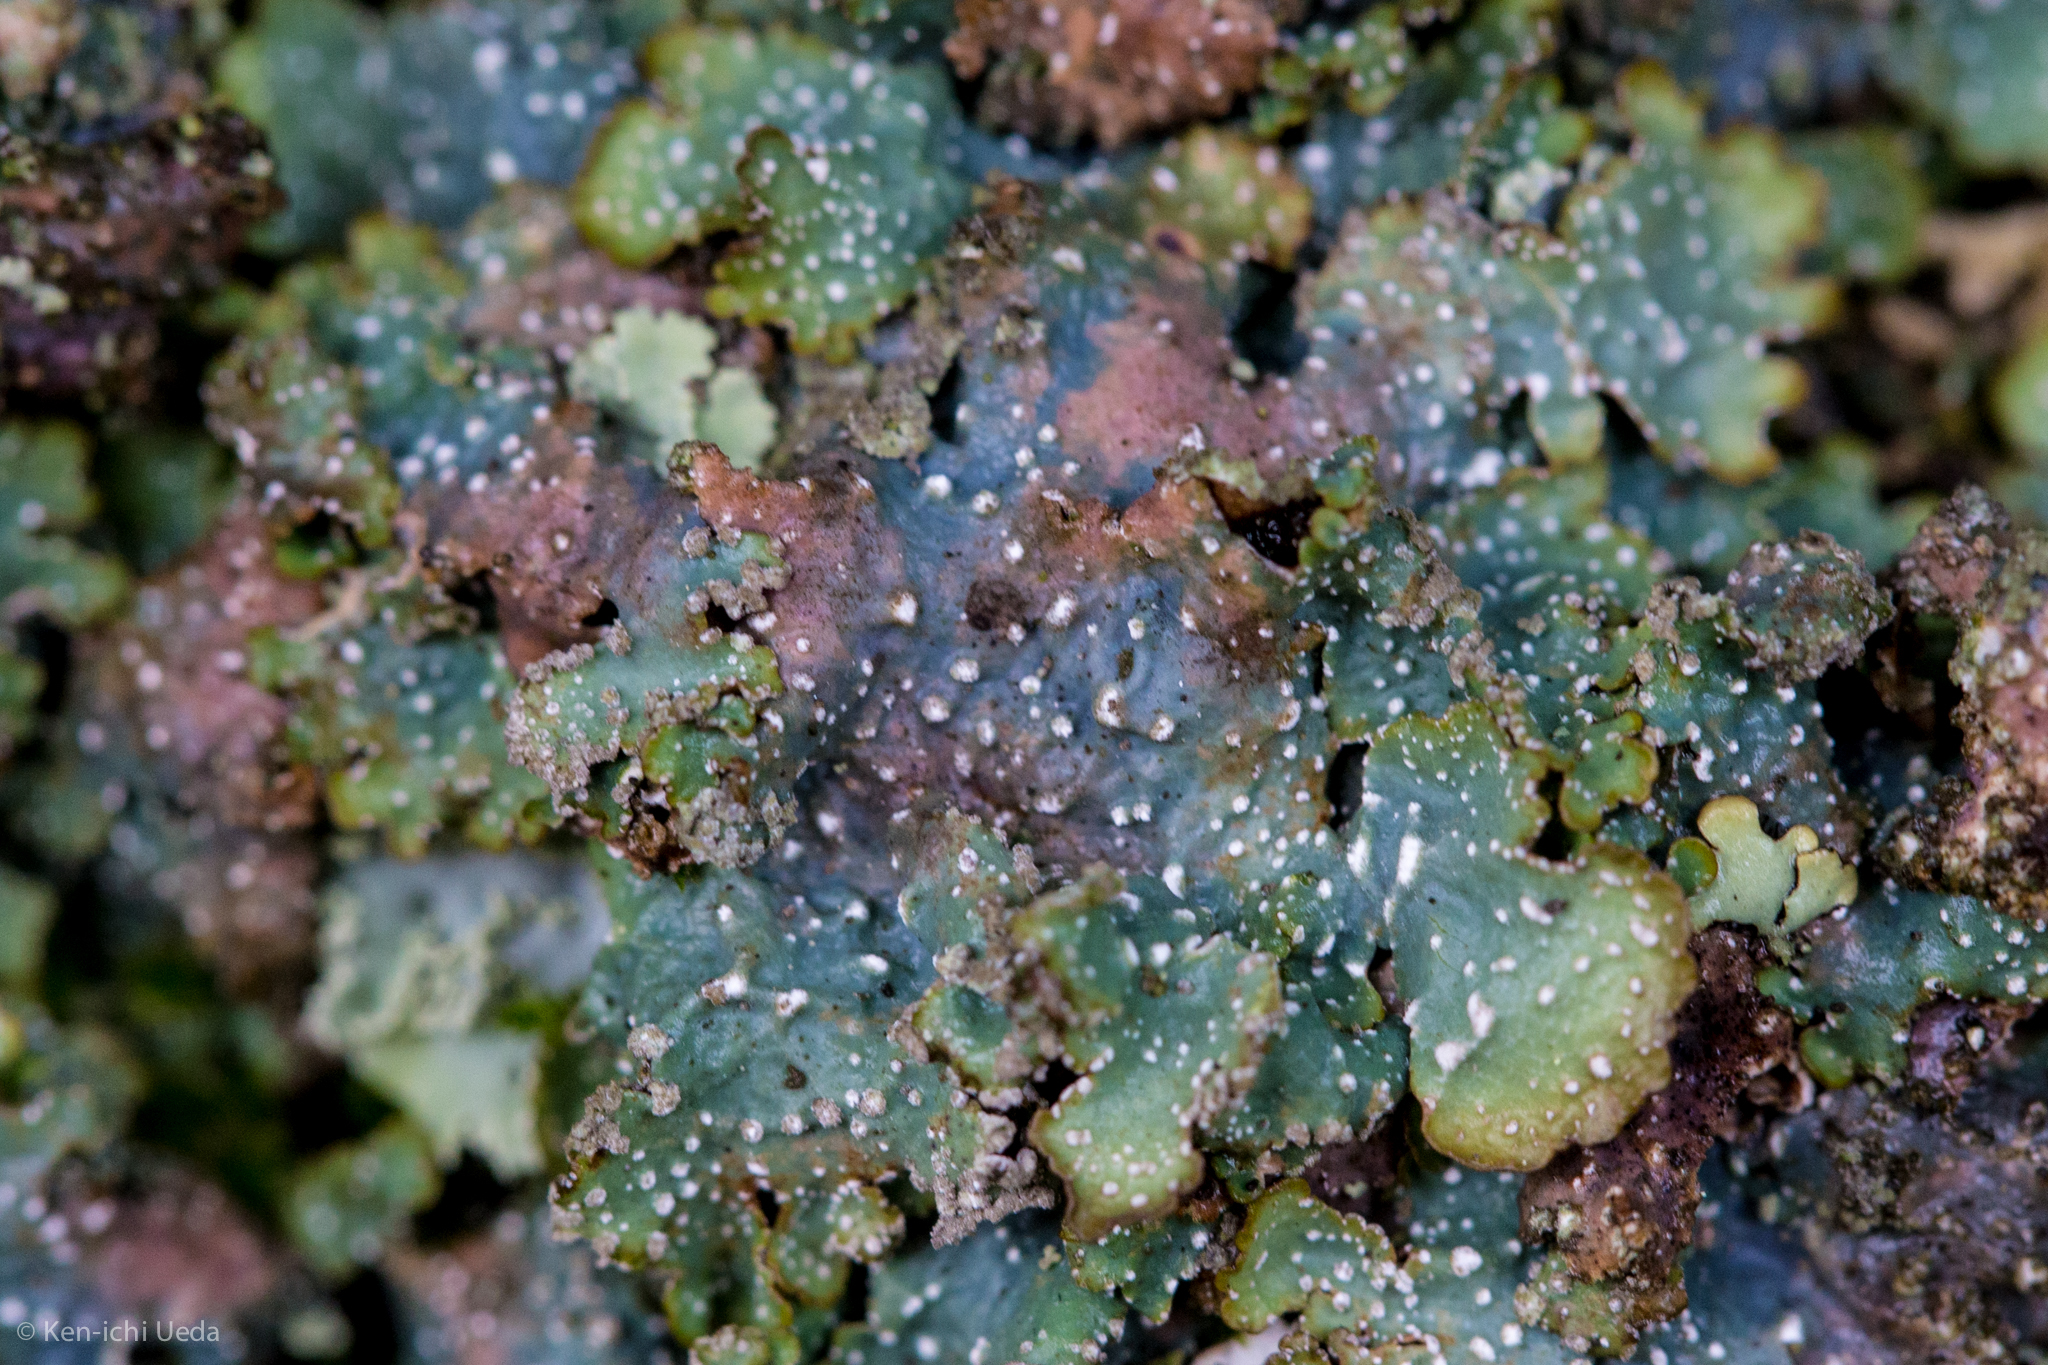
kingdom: Fungi
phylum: Ascomycota
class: Lecanoromycetes
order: Lecanorales
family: Parmeliaceae
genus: Punctelia
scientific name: Punctelia stictica
